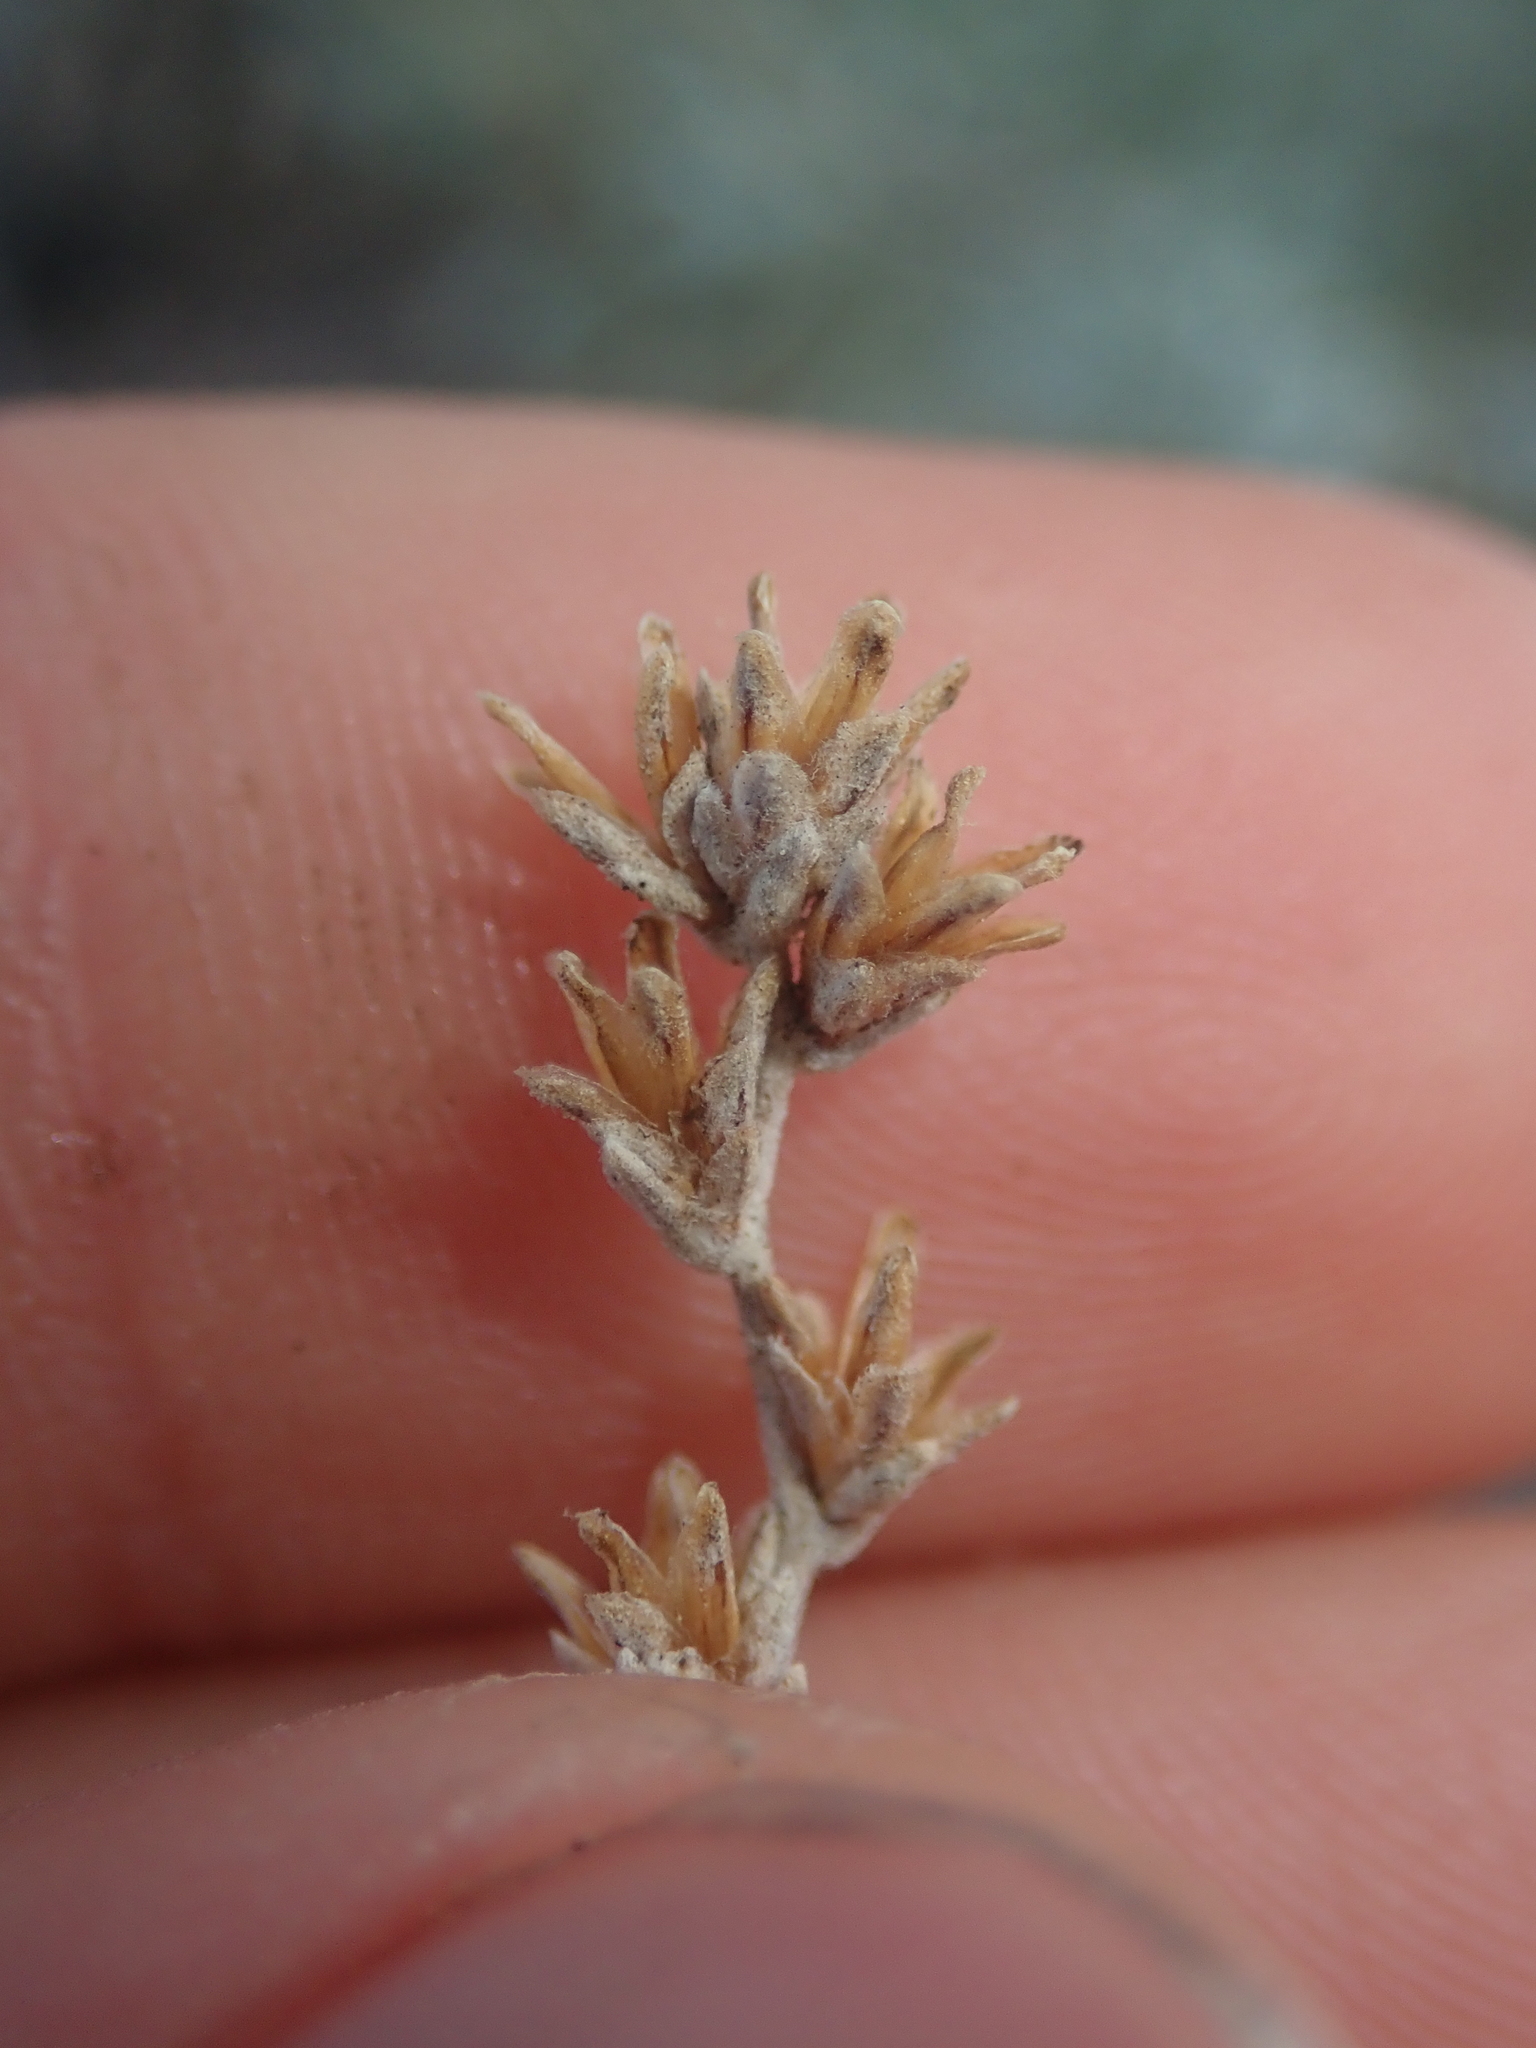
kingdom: Plantae
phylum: Tracheophyta
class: Magnoliopsida
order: Asterales
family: Asteraceae
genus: Artemisia
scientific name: Artemisia arbuscula
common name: Sagebrush
